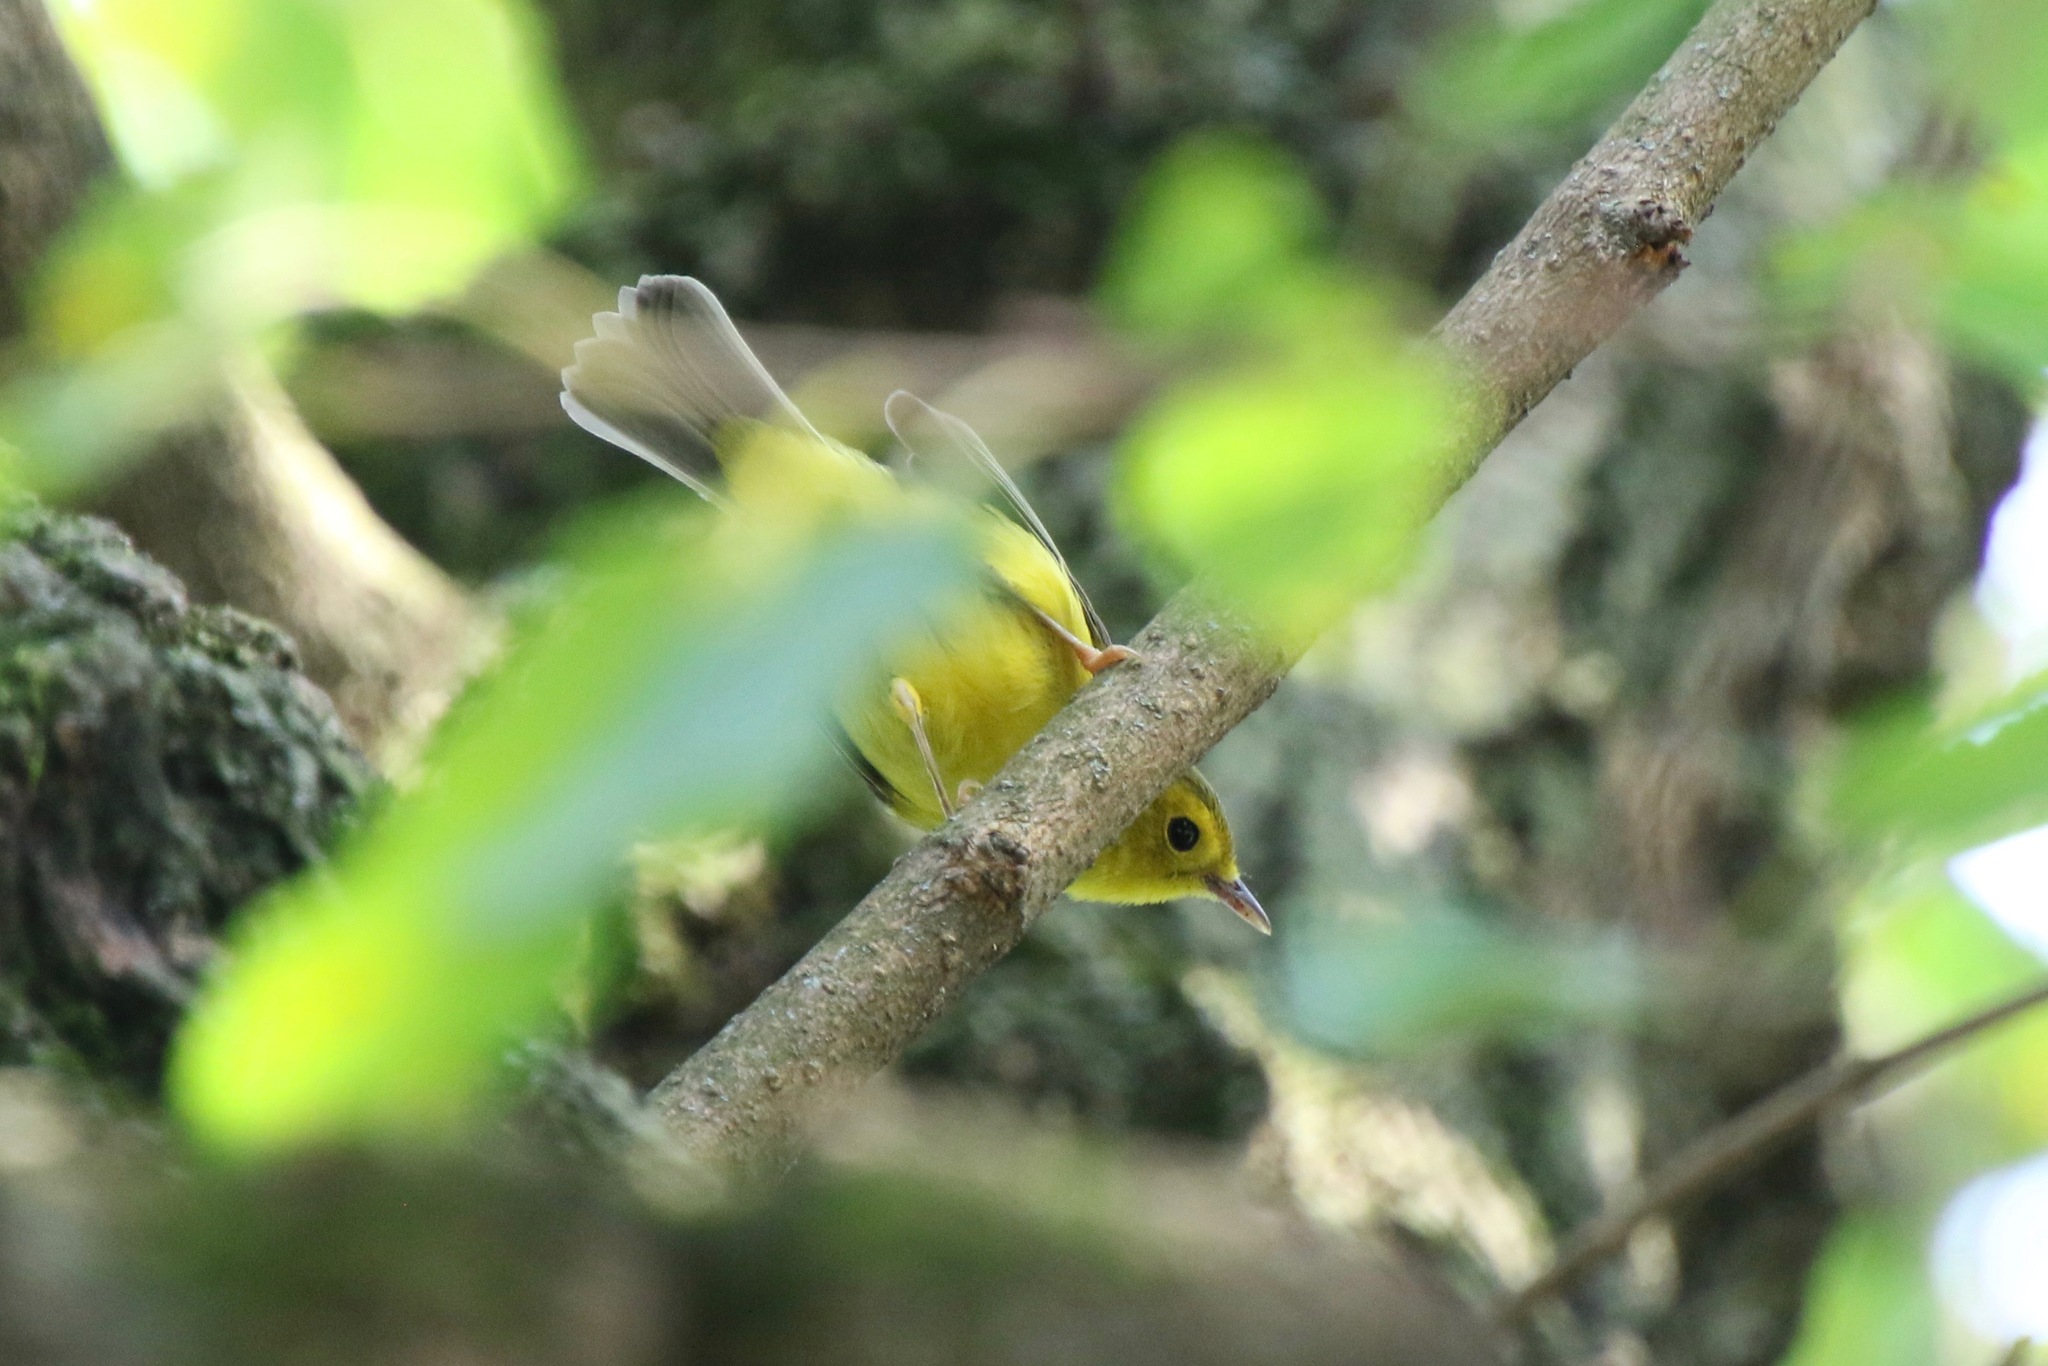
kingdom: Animalia
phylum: Chordata
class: Aves
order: Passeriformes
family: Parulidae
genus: Cardellina
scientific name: Cardellina pusilla
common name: Wilson's warbler
